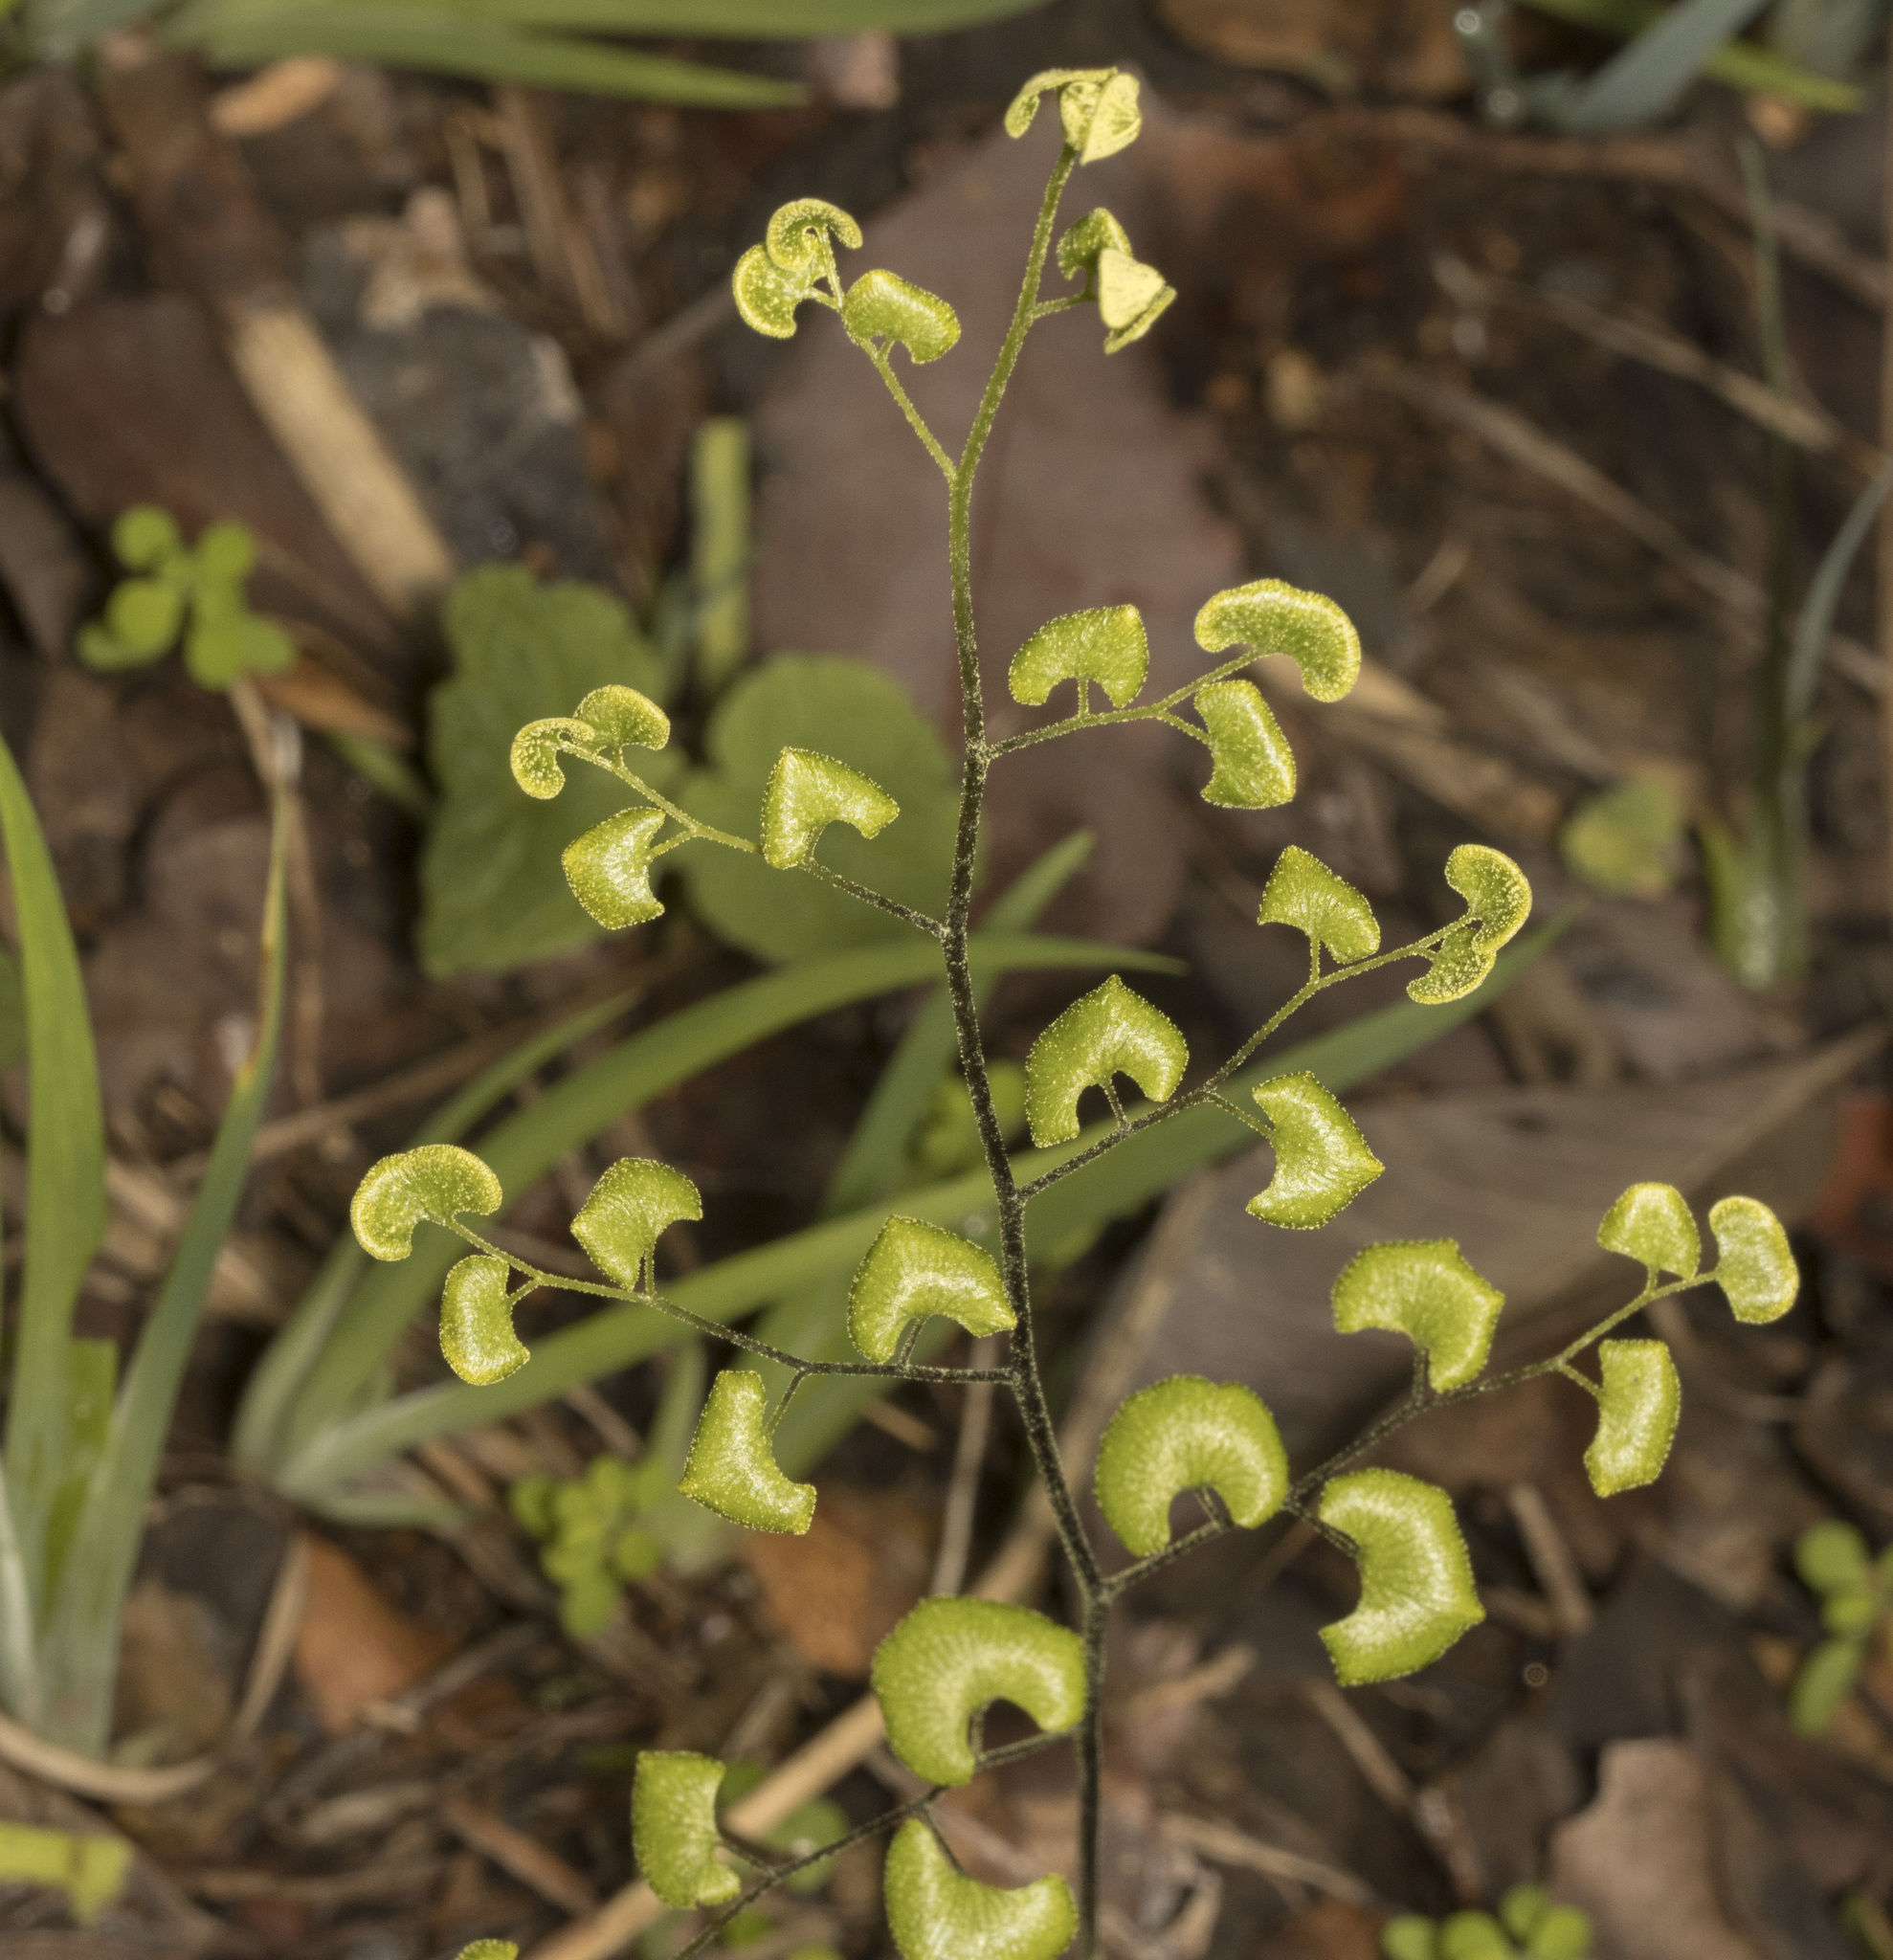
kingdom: Plantae
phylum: Tracheophyta
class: Polypodiopsida
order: Polypodiales
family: Pteridaceae
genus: Adiantum
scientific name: Adiantum sulphureum
